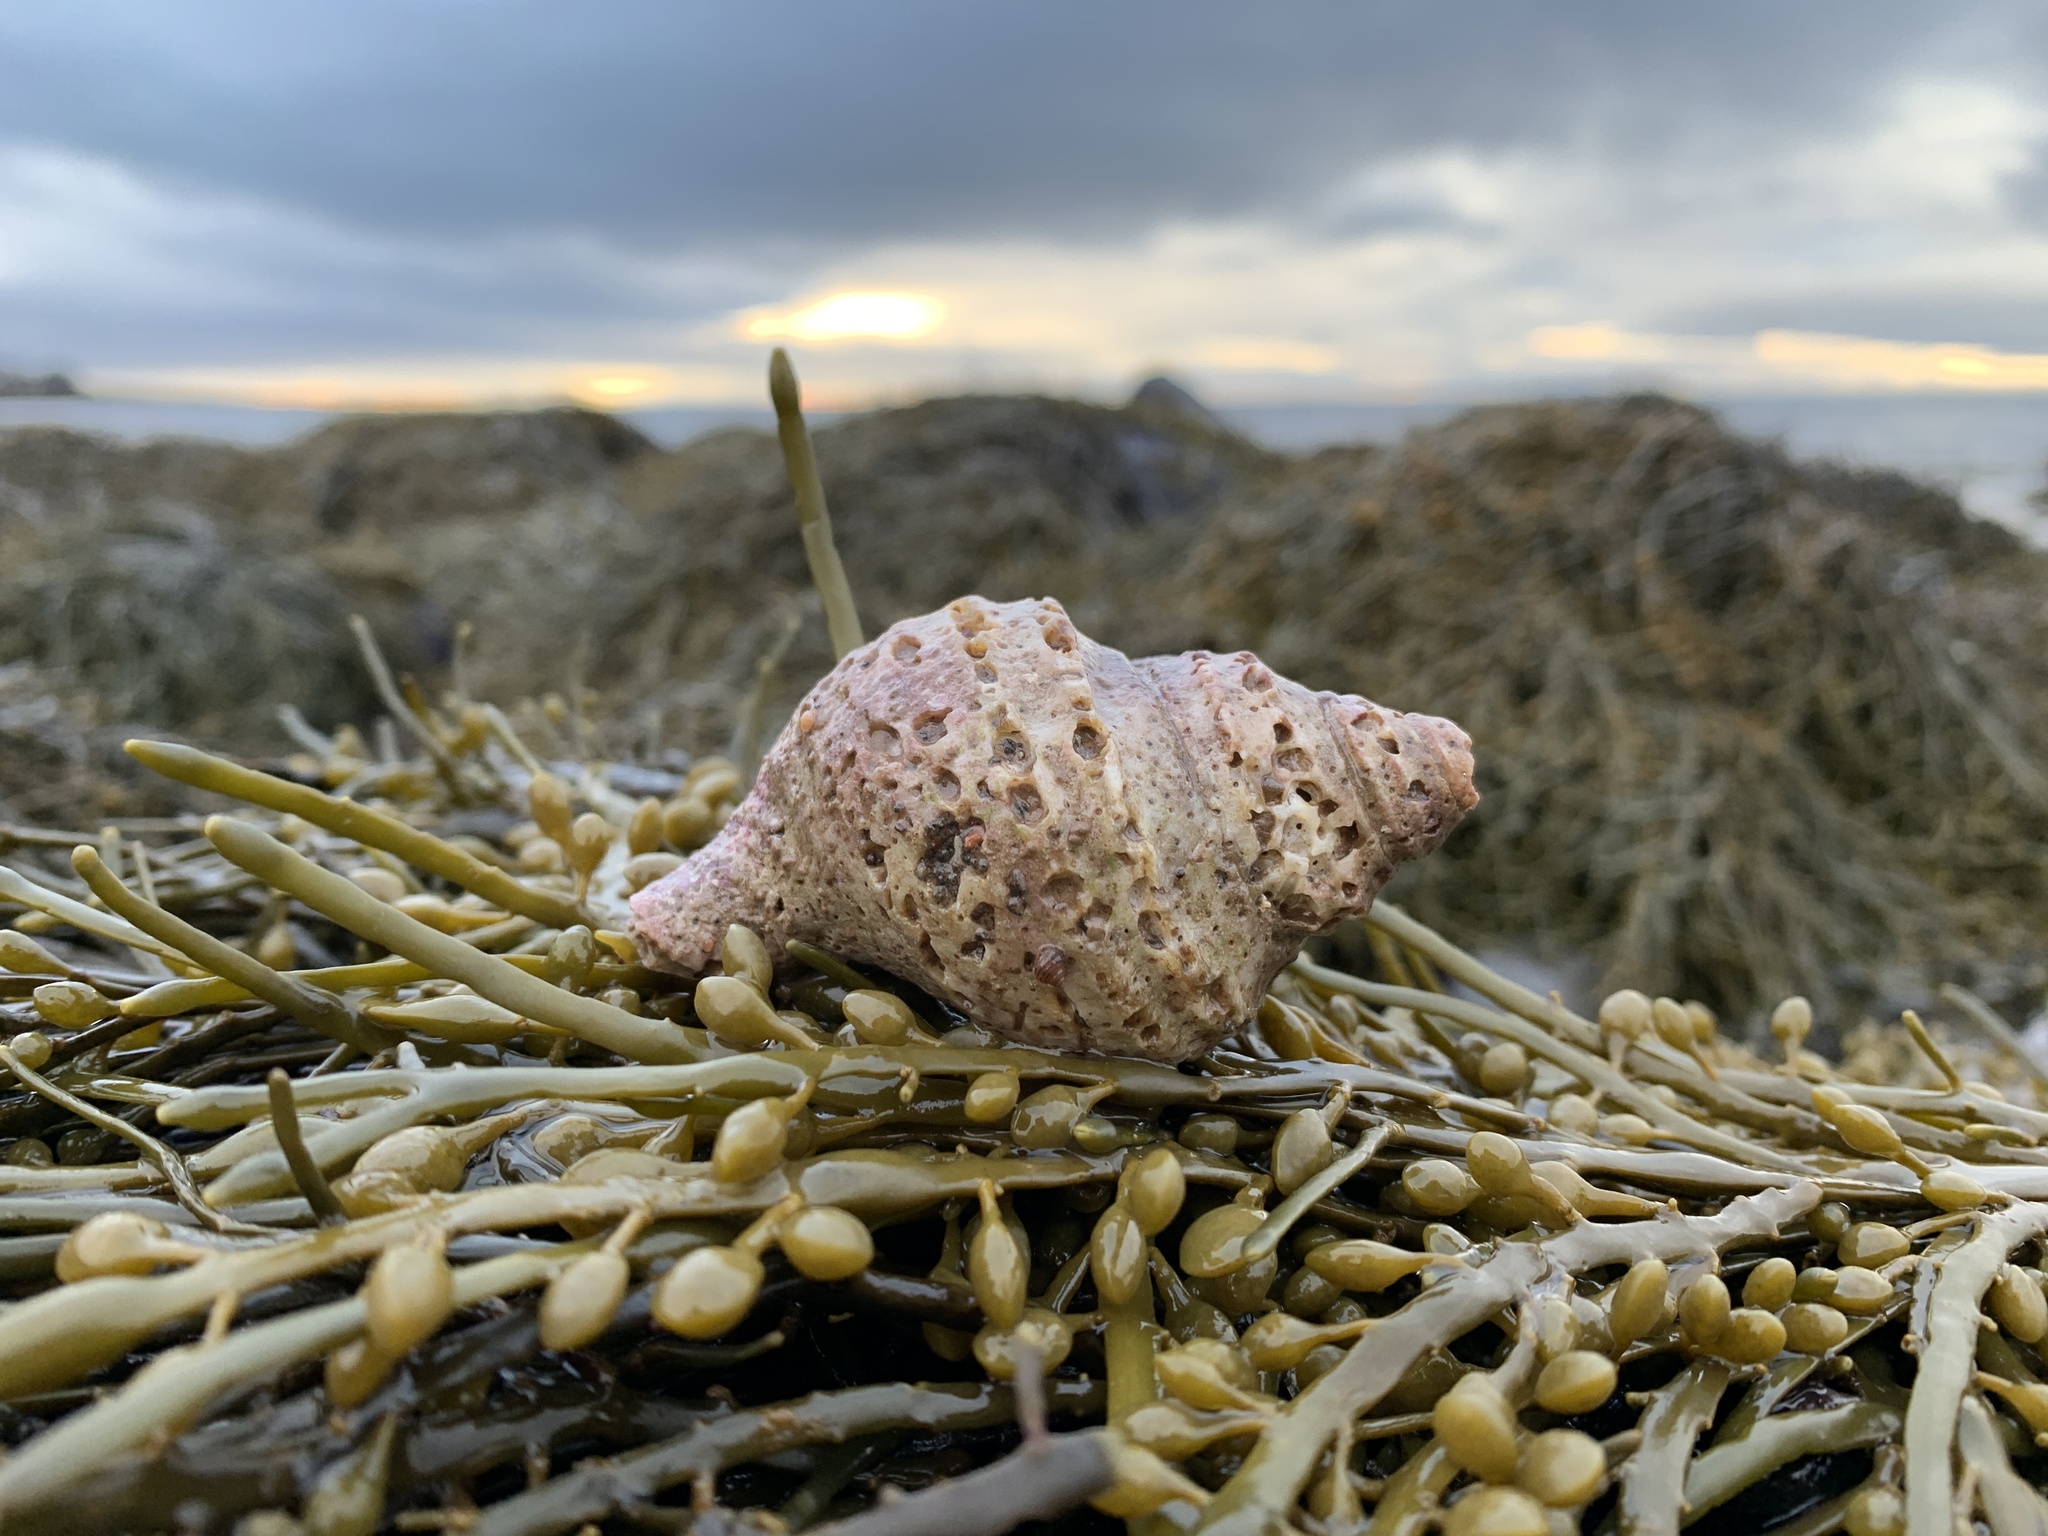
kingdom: Animalia
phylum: Mollusca
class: Gastropoda
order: Neogastropoda
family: Buccinidae
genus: Neptunea
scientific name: Neptunea decemcostata
